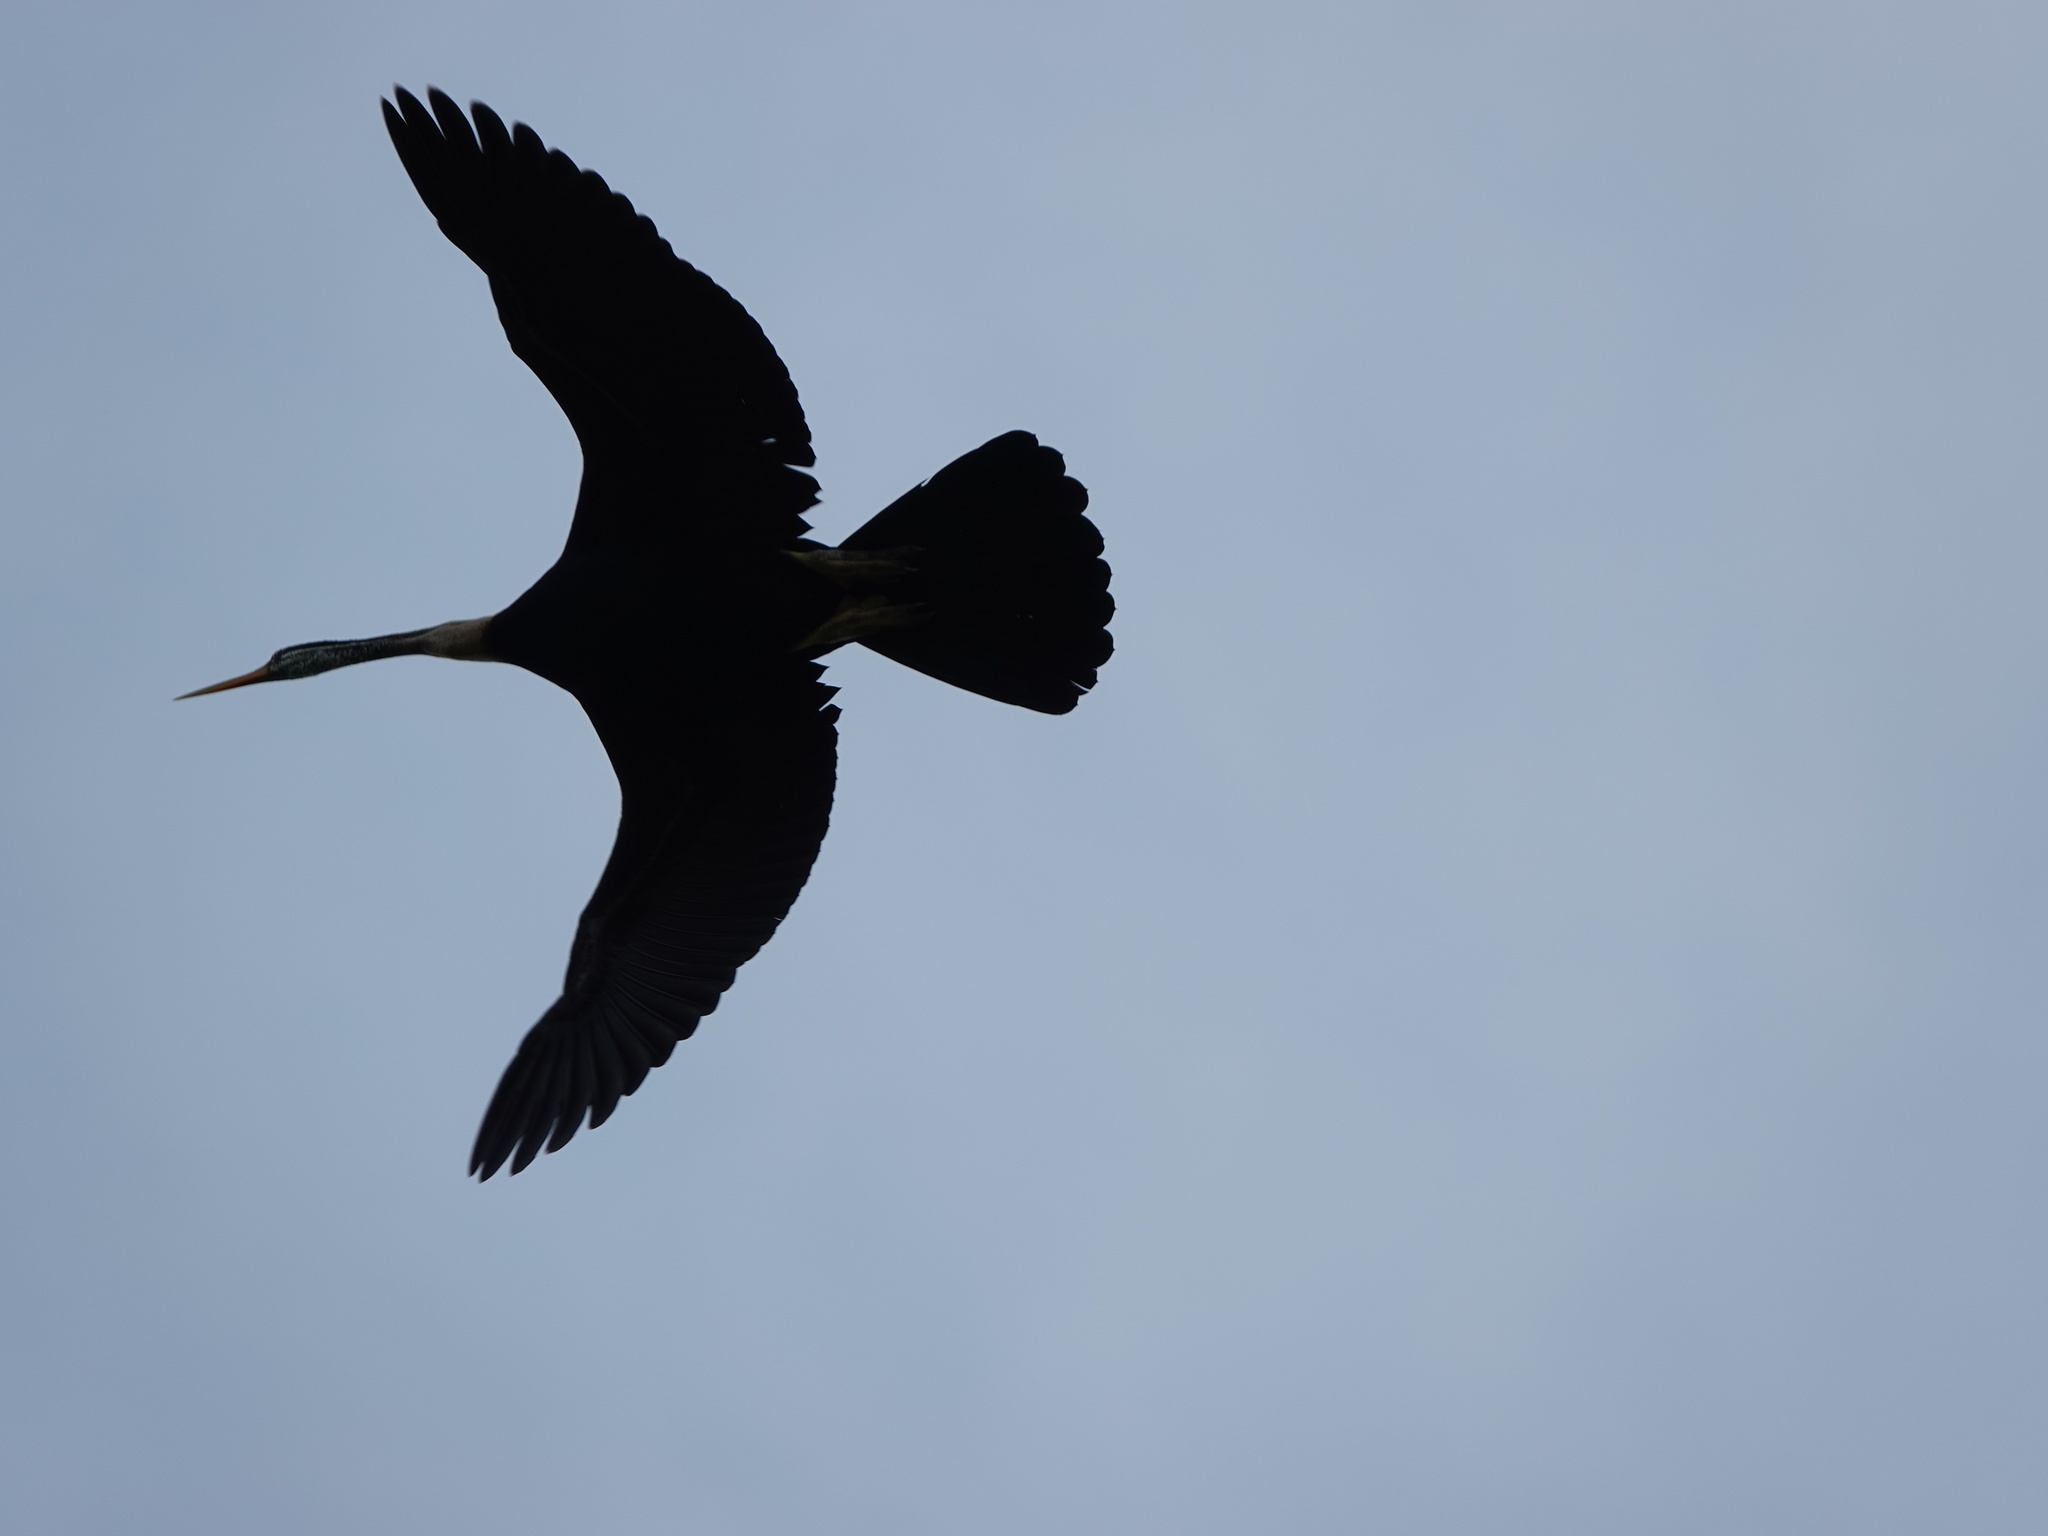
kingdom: Animalia
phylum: Chordata
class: Aves
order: Suliformes
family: Anhingidae
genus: Anhinga
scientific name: Anhinga melanogaster
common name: Oriental darter
